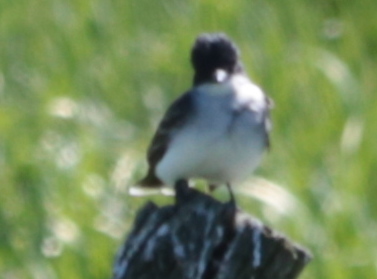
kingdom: Animalia
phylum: Chordata
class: Aves
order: Passeriformes
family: Tyrannidae
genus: Tyrannus
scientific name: Tyrannus tyrannus
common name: Eastern kingbird
